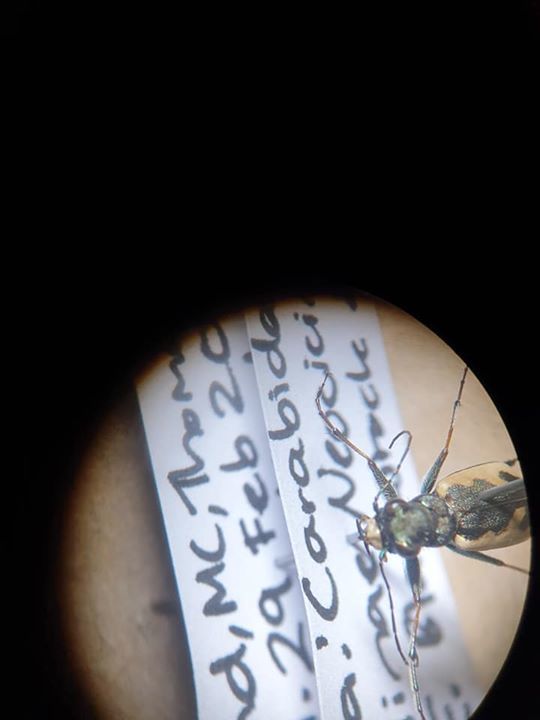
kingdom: Animalia
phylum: Arthropoda
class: Insecta
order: Coleoptera
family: Carabidae
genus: Neocicindela
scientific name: Neocicindela latecincta
